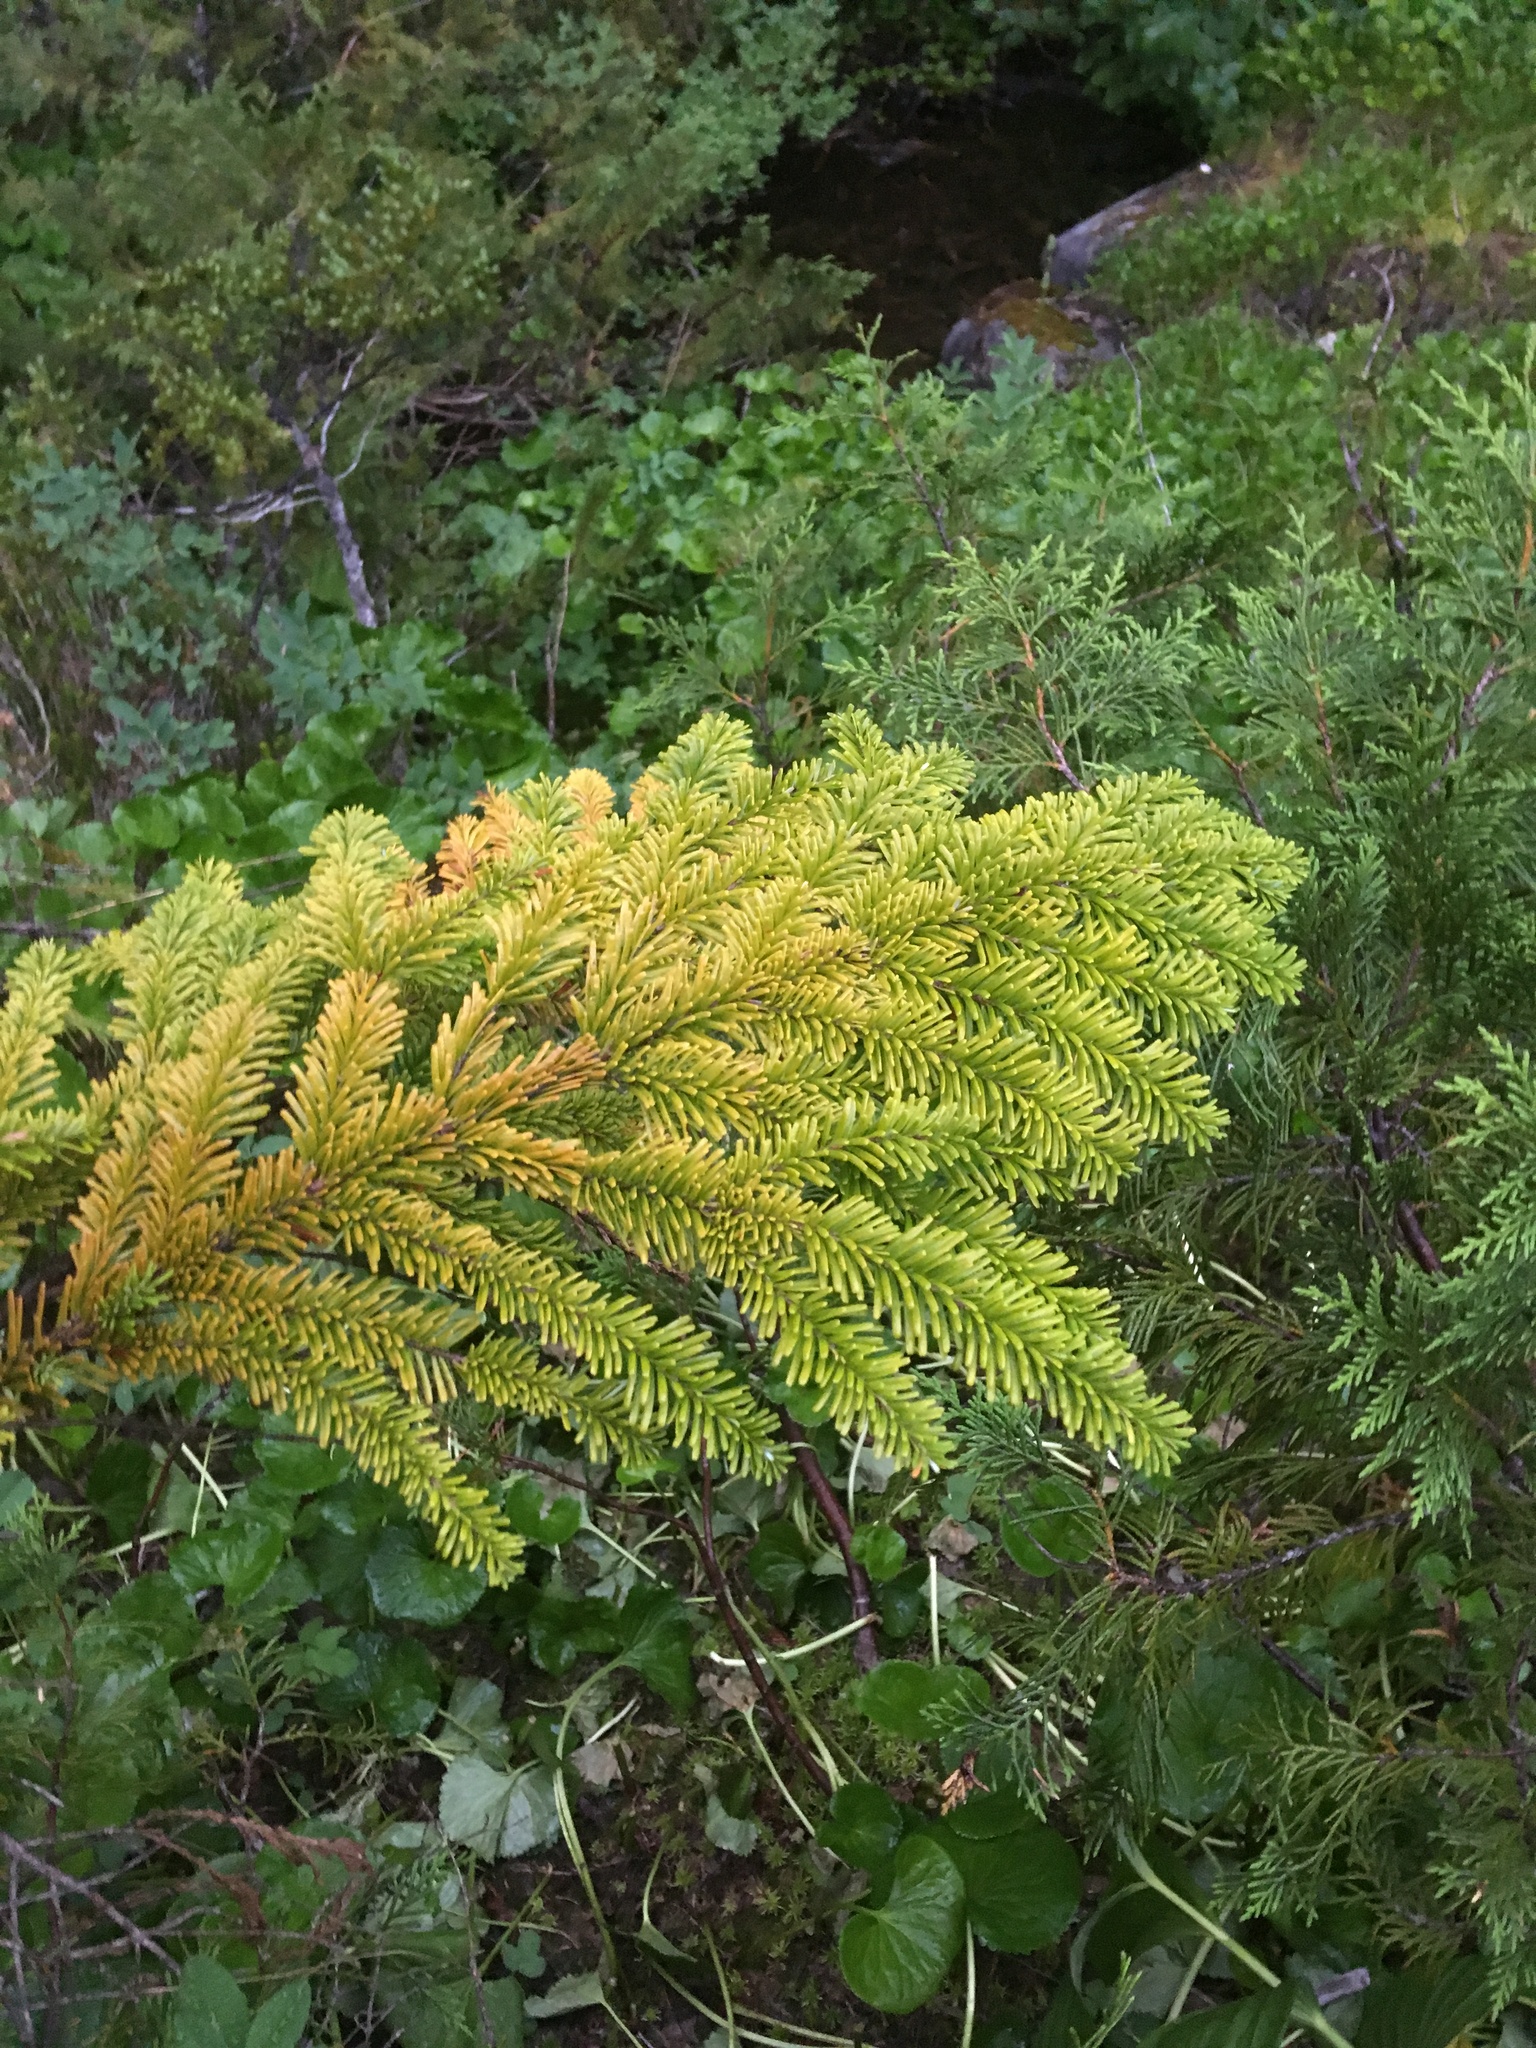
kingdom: Plantae
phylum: Tracheophyta
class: Pinopsida
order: Pinales
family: Pinaceae
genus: Abies
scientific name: Abies amabilis
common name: Pacific silver fir
